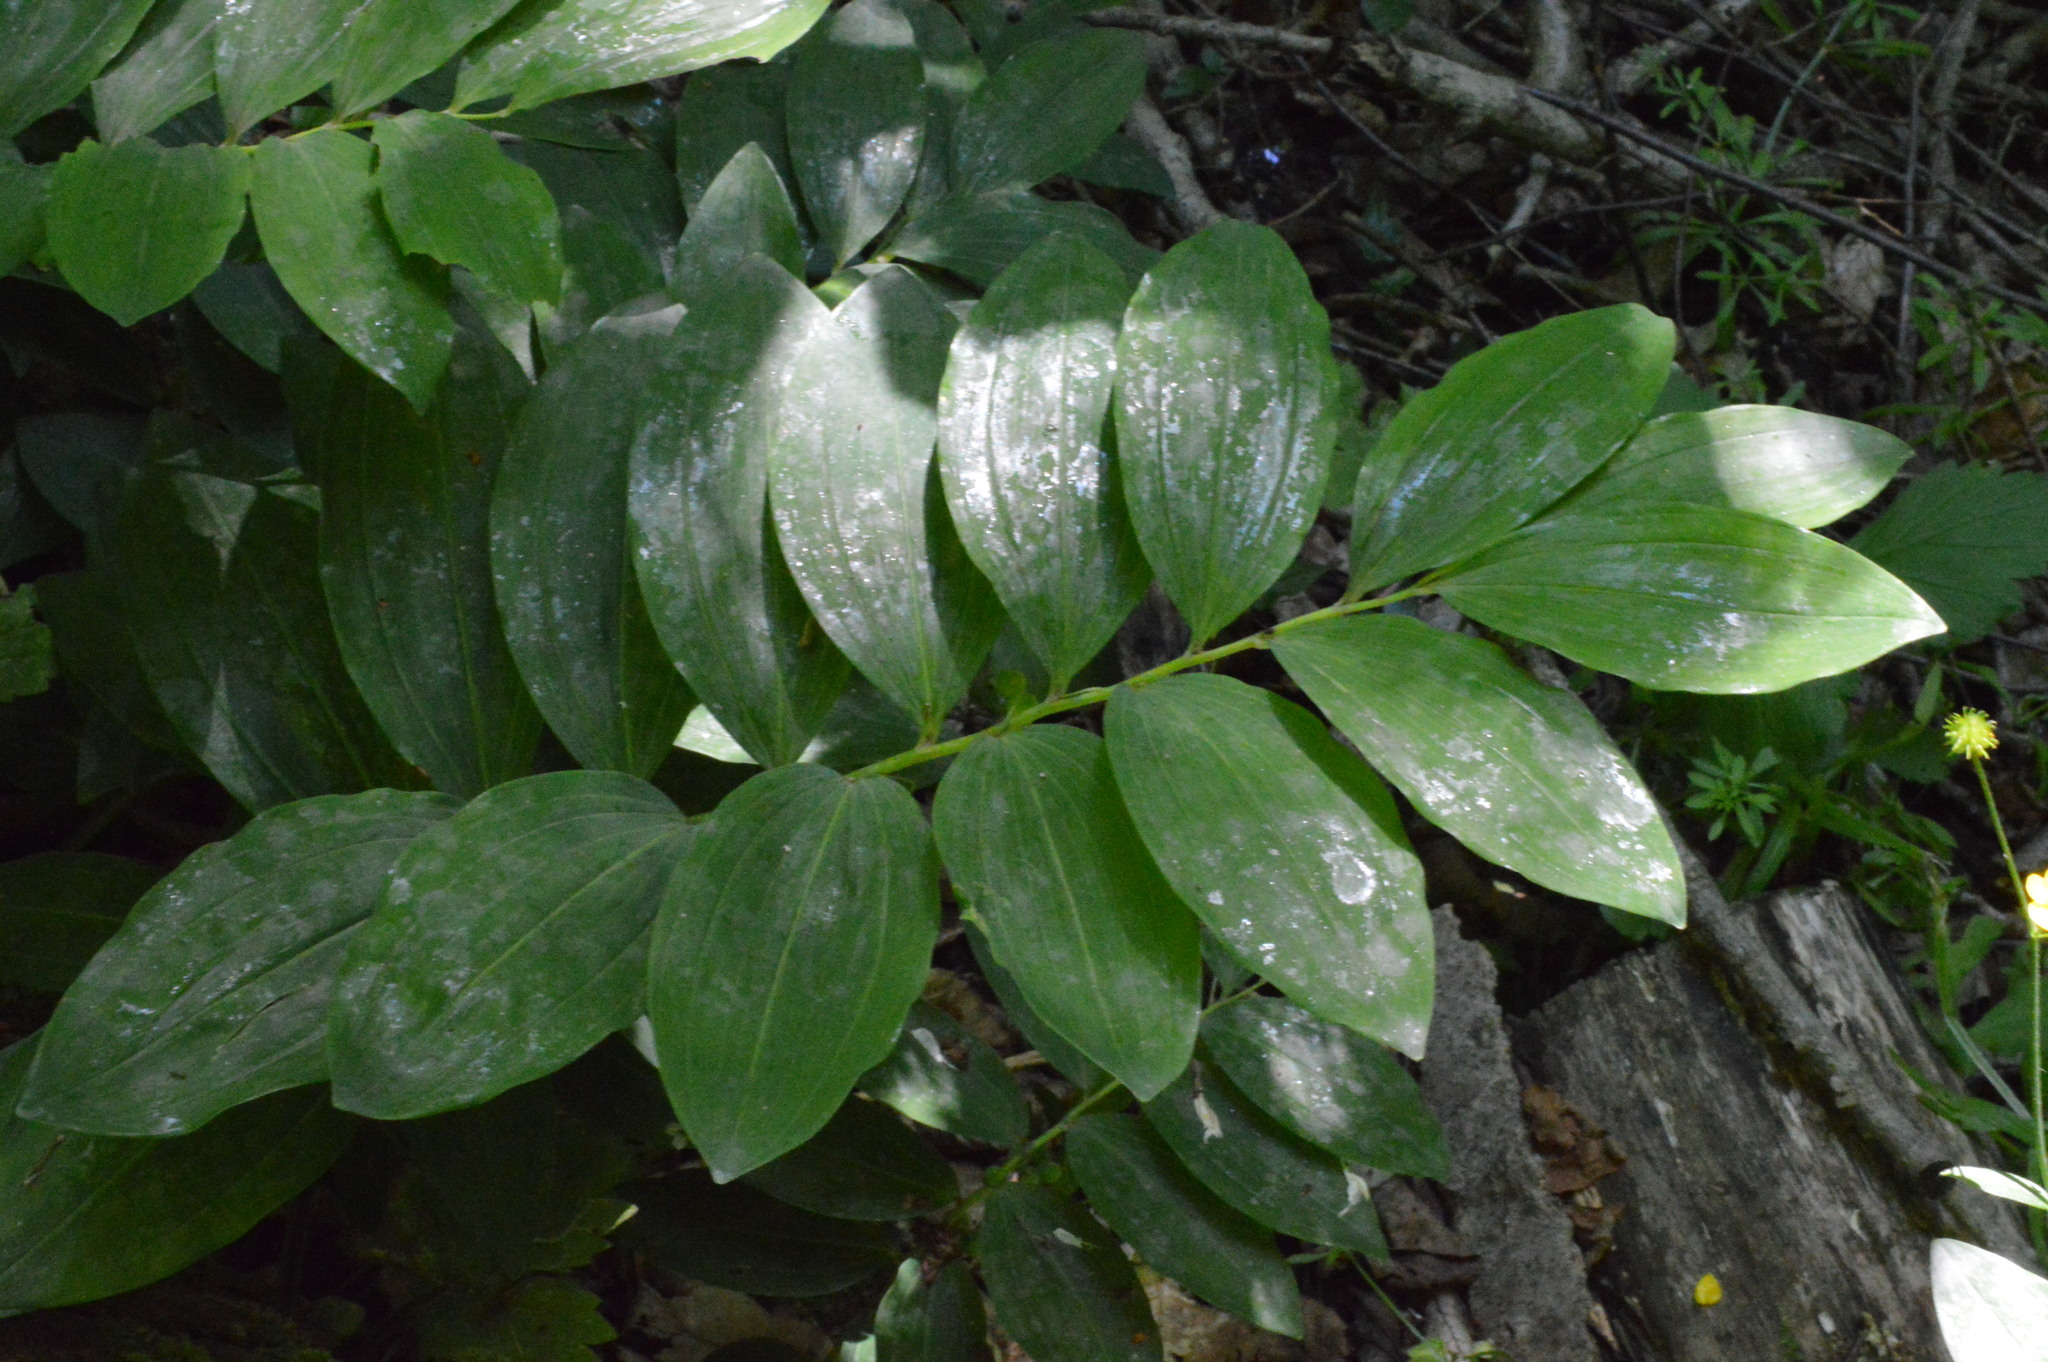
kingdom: Plantae
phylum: Tracheophyta
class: Liliopsida
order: Asparagales
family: Asparagaceae
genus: Polygonatum
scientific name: Polygonatum multiflorum
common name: Solomon's-seal
